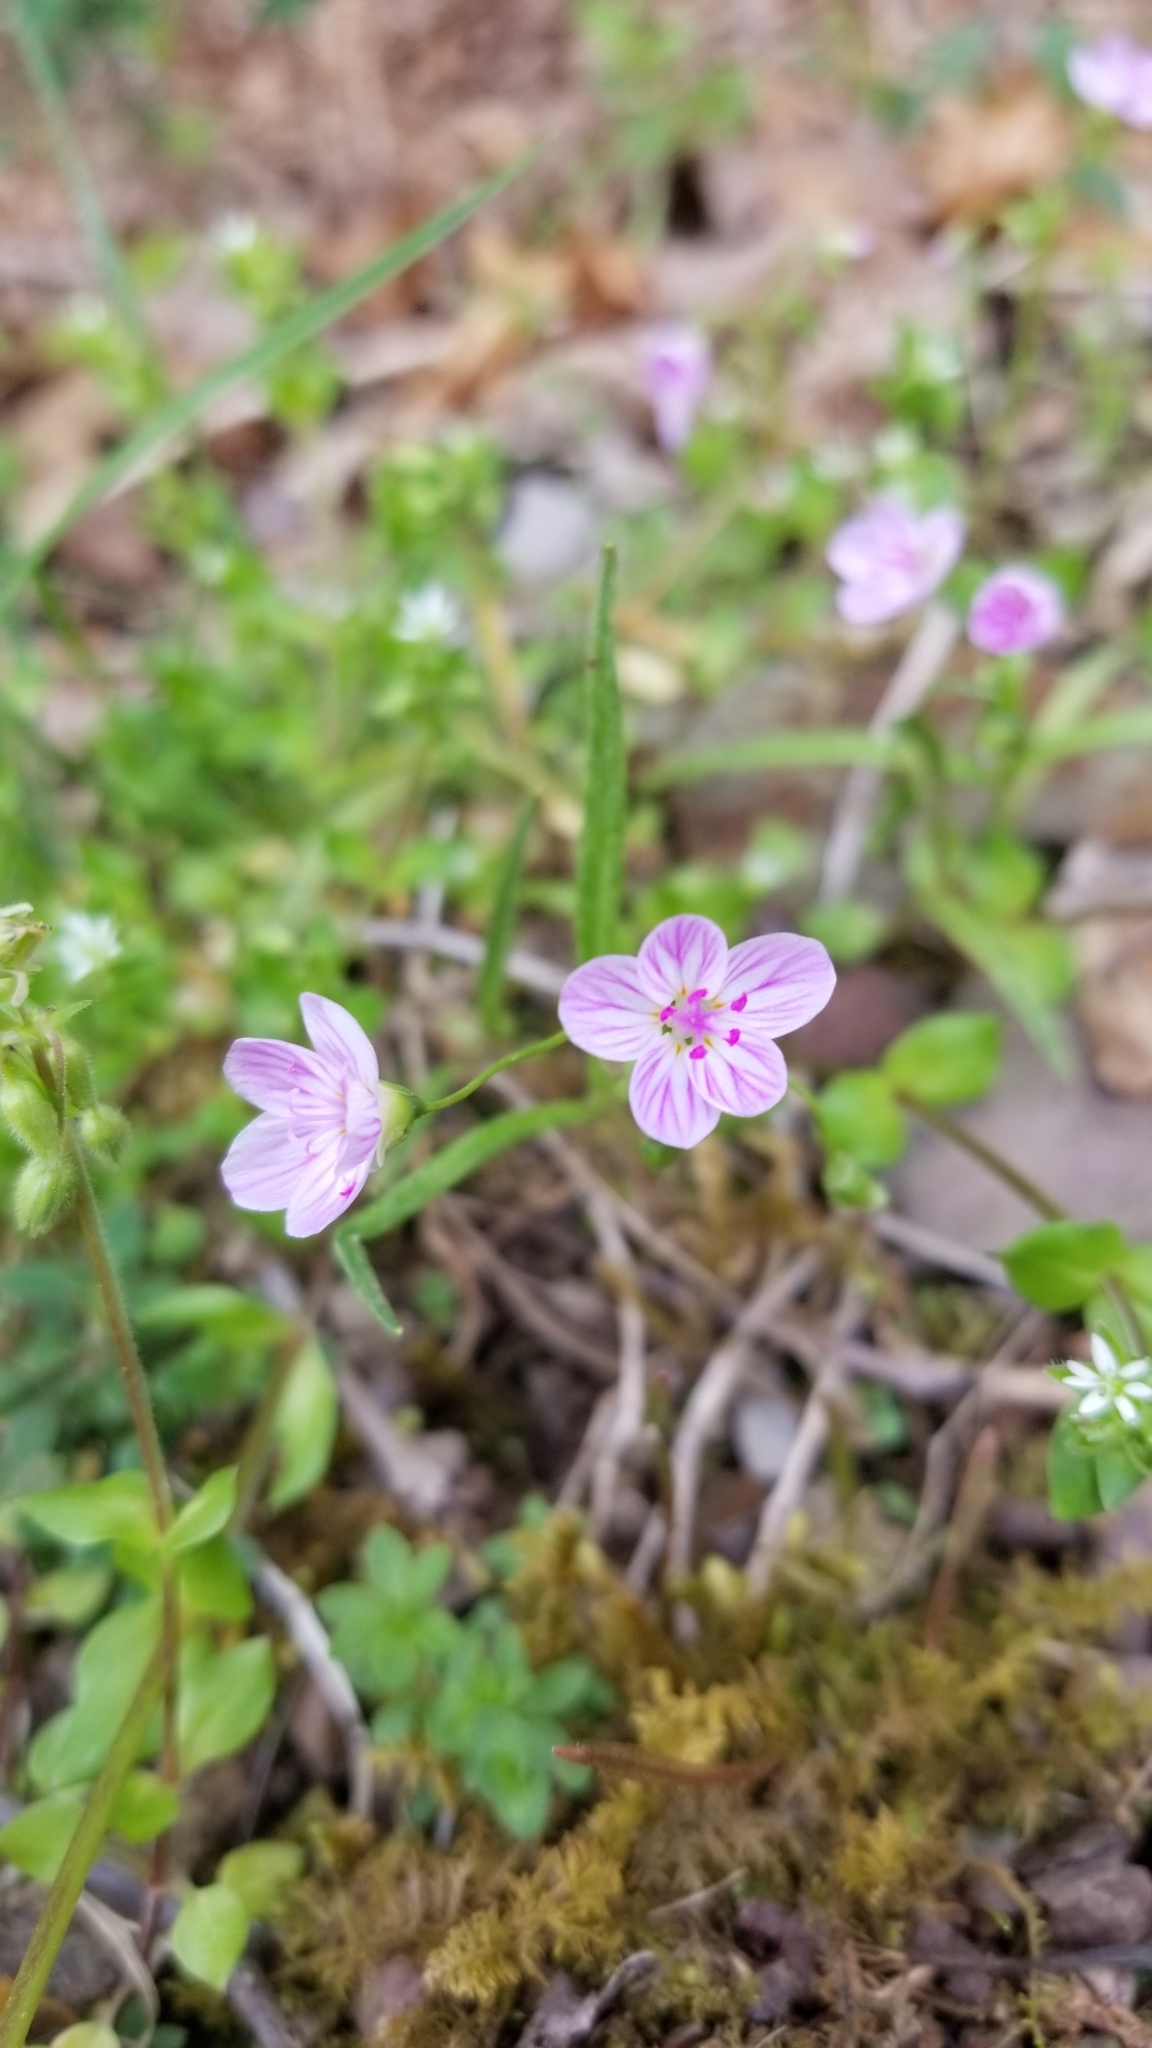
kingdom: Plantae
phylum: Tracheophyta
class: Magnoliopsida
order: Caryophyllales
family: Montiaceae
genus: Claytonia
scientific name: Claytonia virginica
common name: Virginia springbeauty
